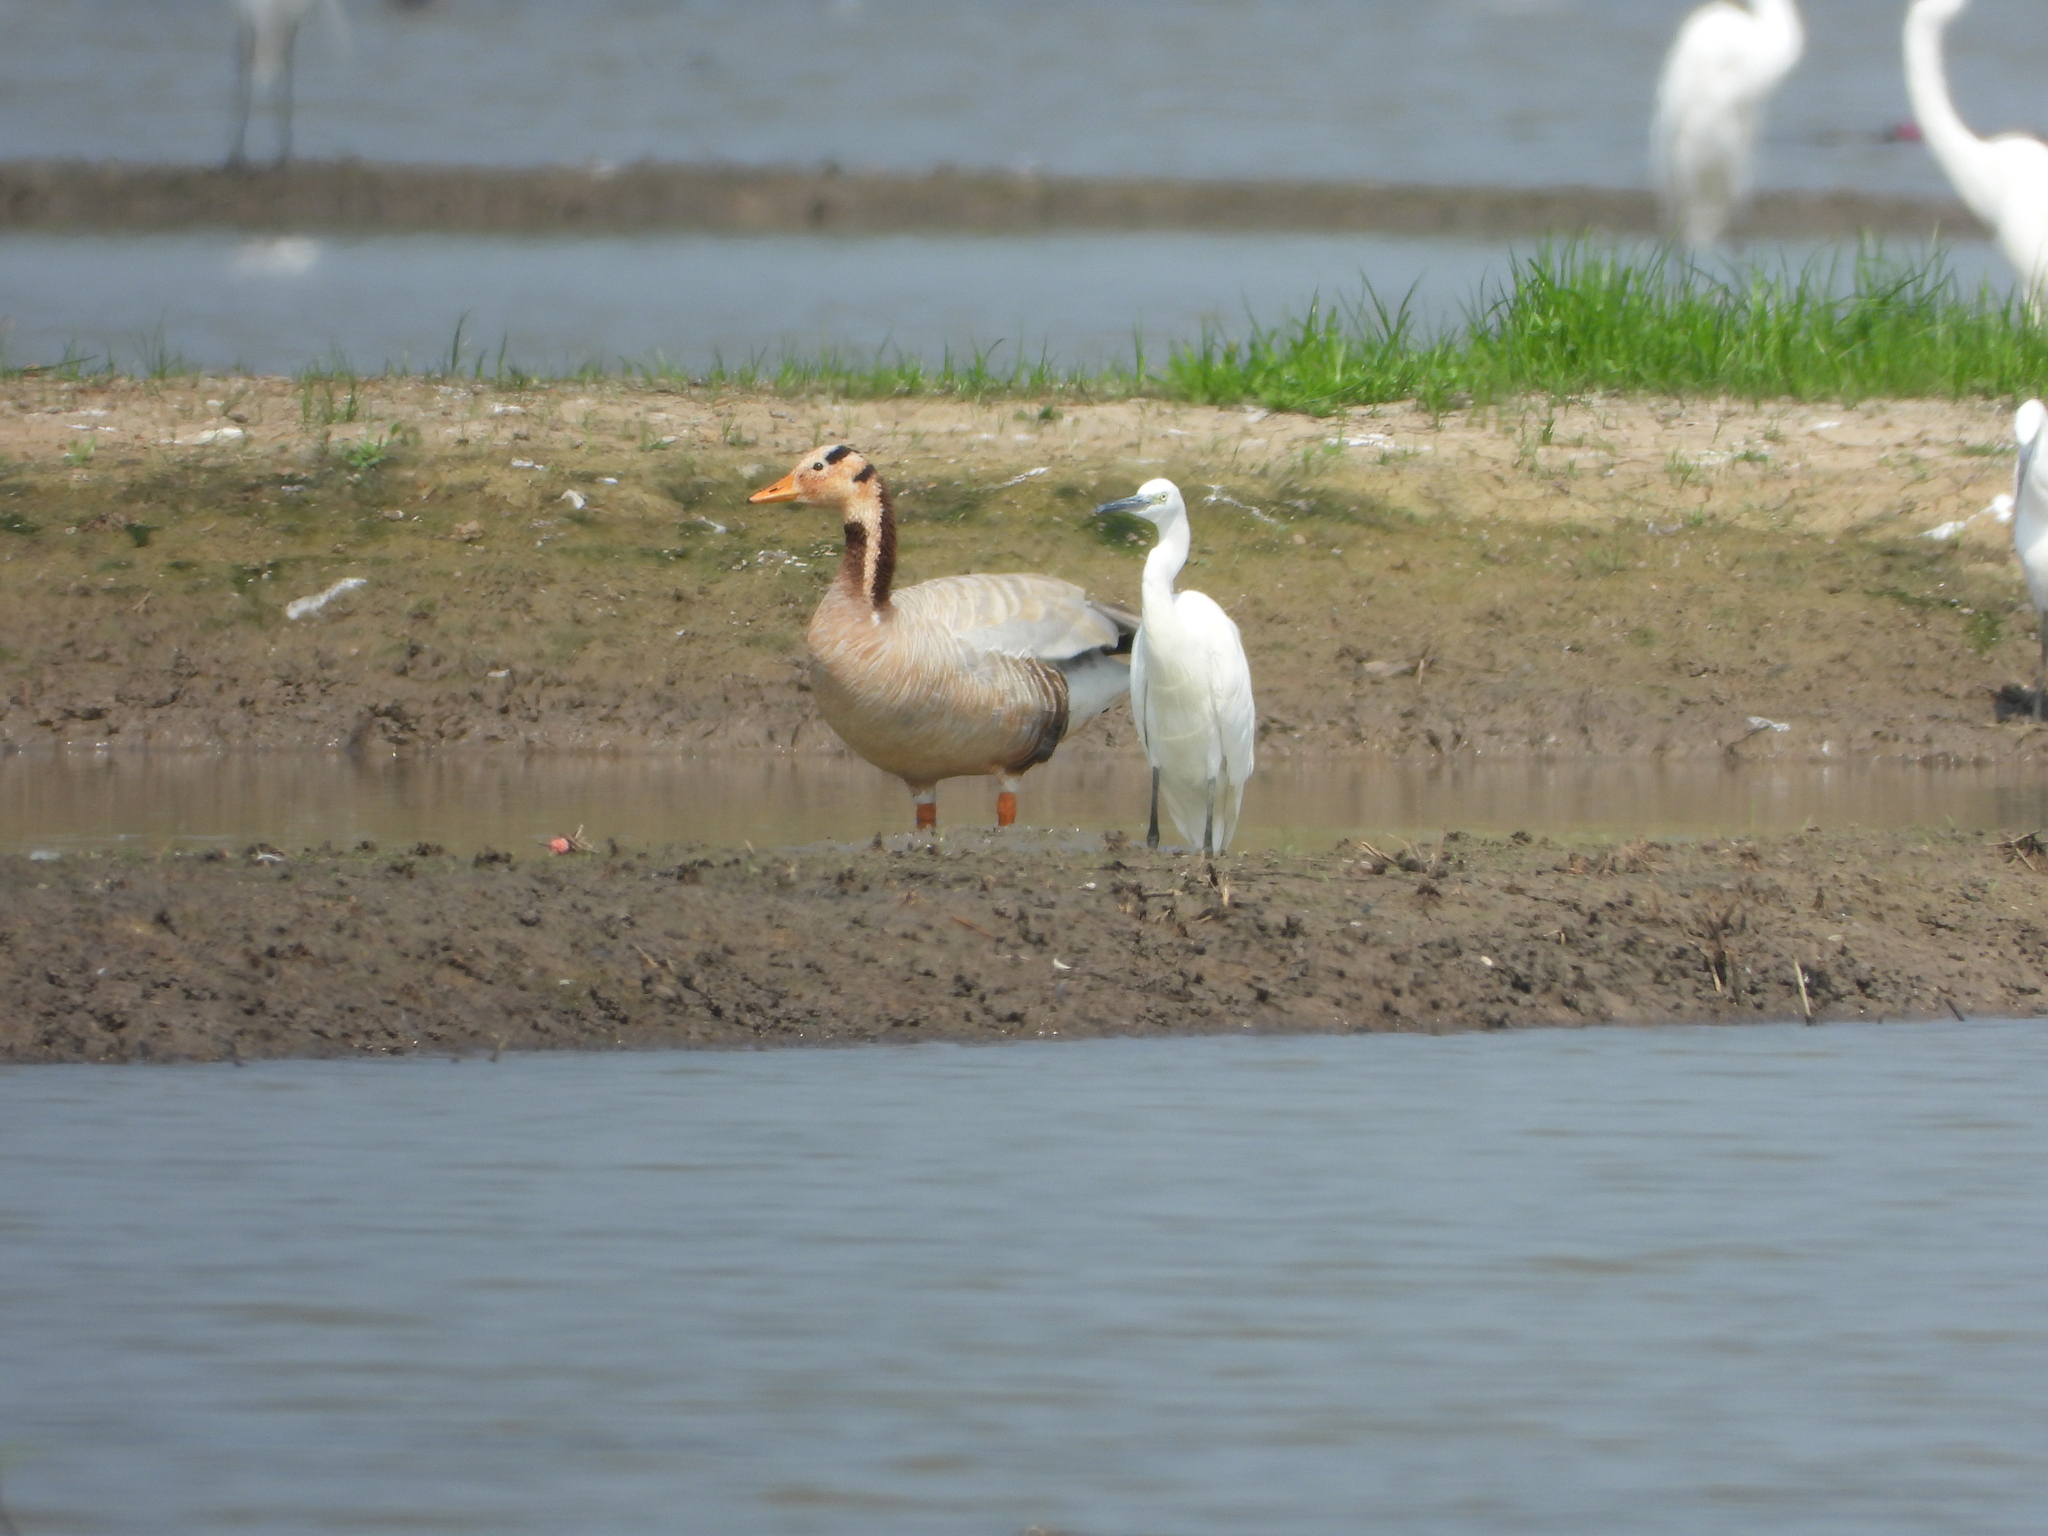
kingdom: Animalia
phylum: Chordata
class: Aves
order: Anseriformes
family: Anatidae
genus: Anser
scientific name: Anser indicus
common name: Bar-headed goose
